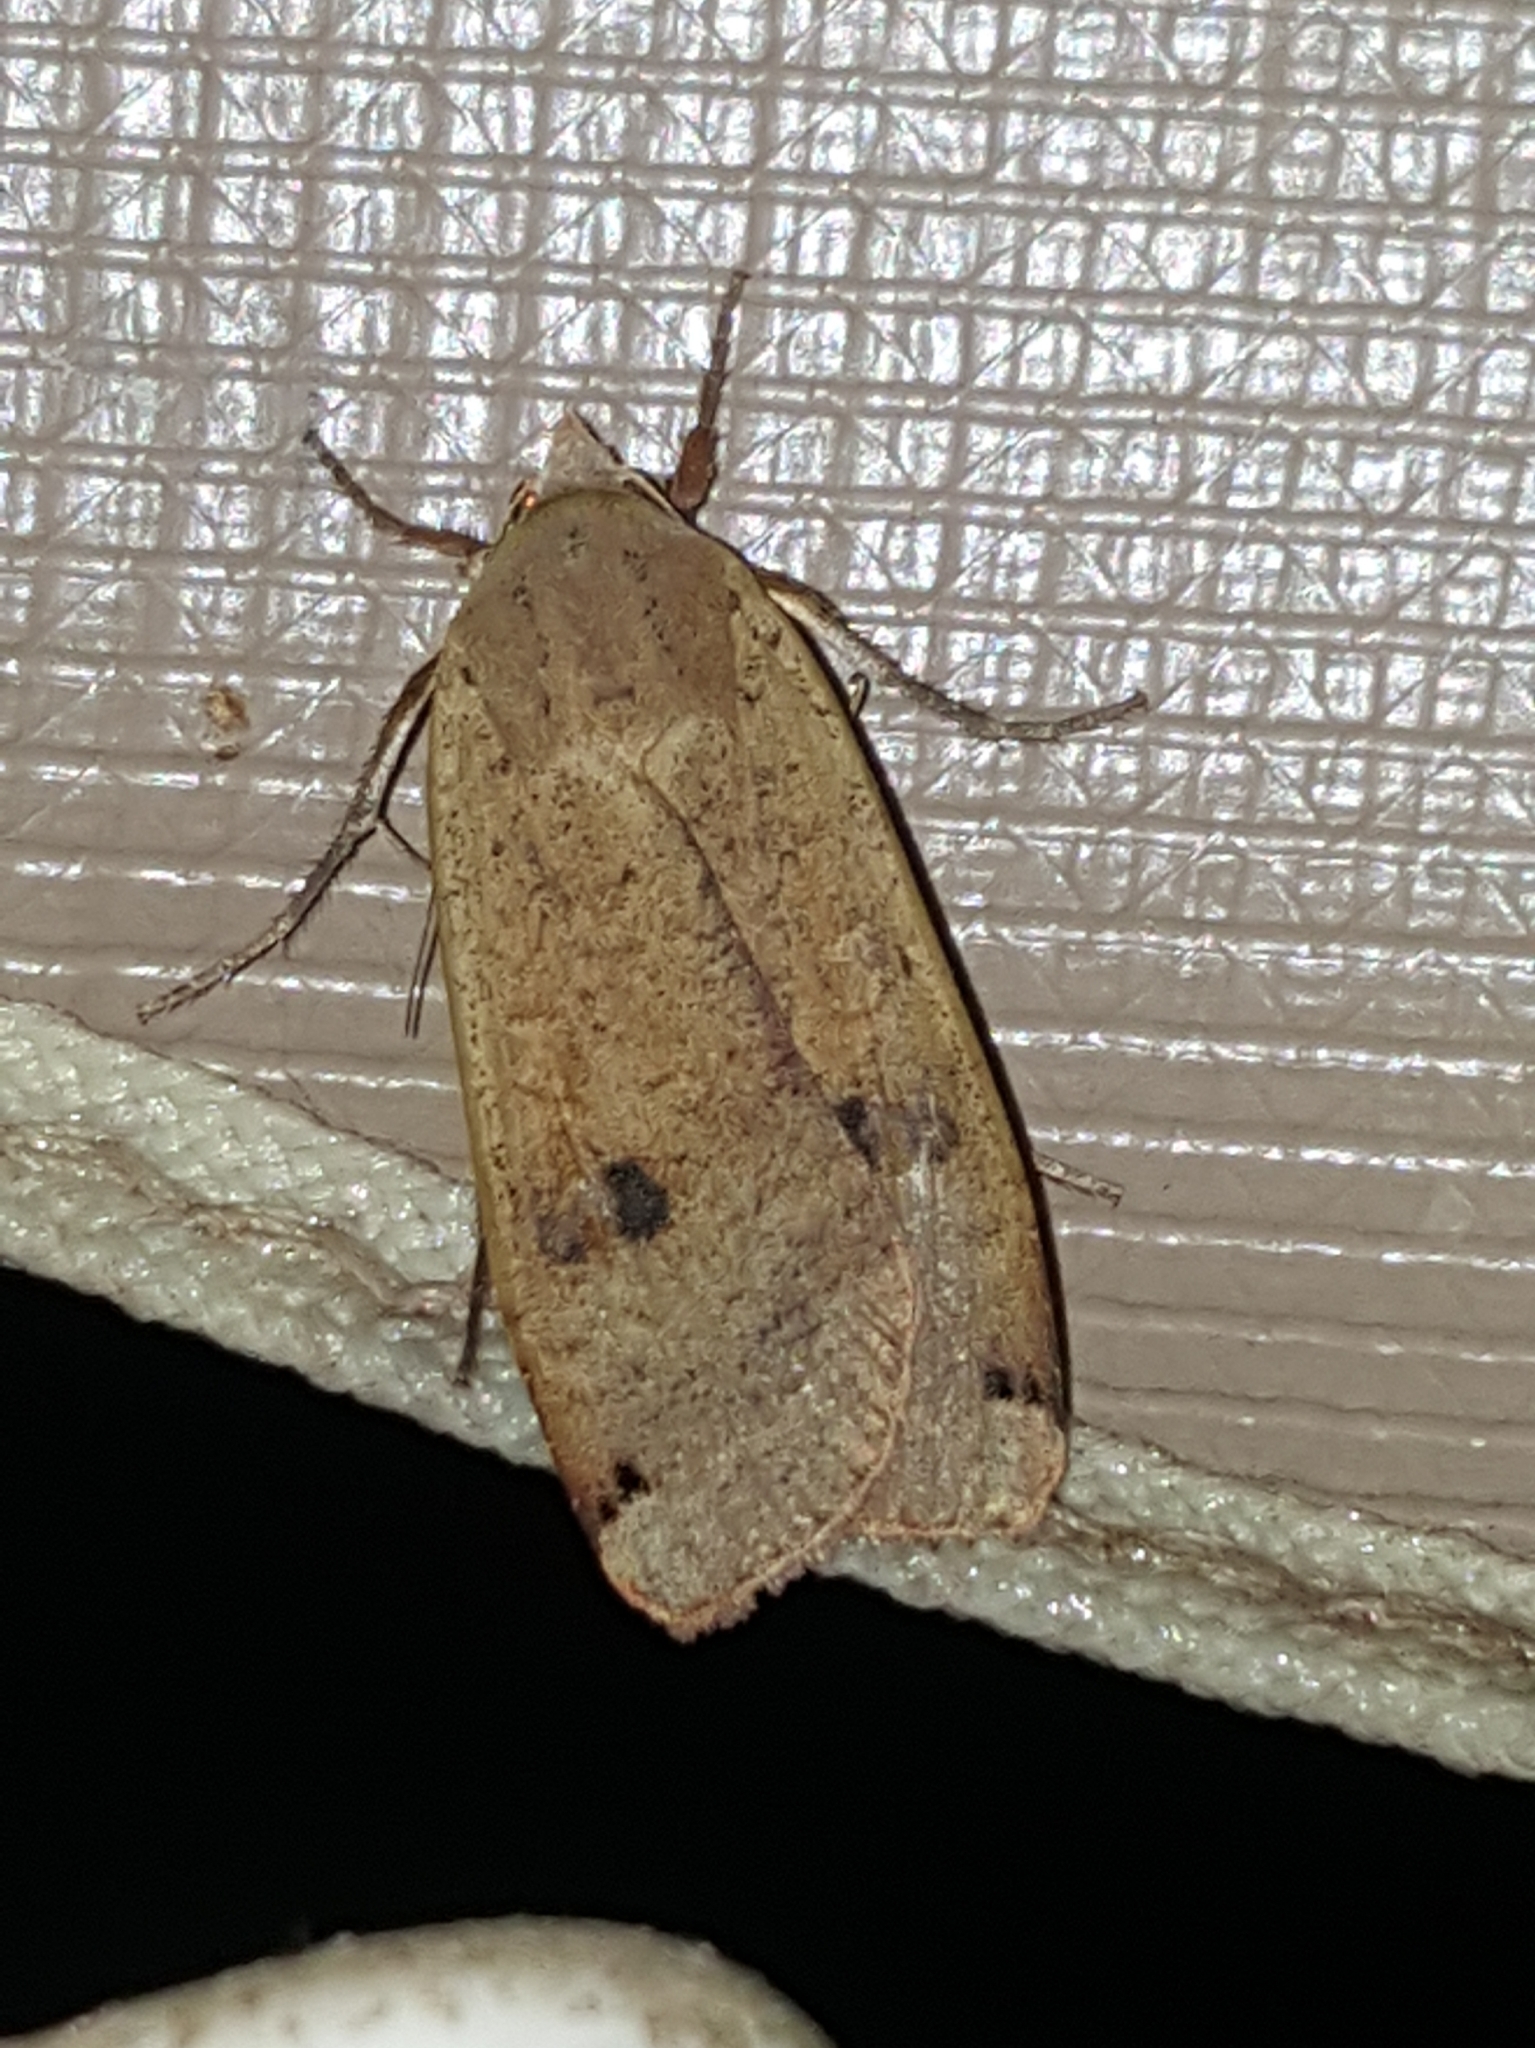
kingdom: Animalia
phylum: Arthropoda
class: Insecta
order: Lepidoptera
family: Noctuidae
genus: Noctua
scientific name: Noctua pronuba
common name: Large yellow underwing
